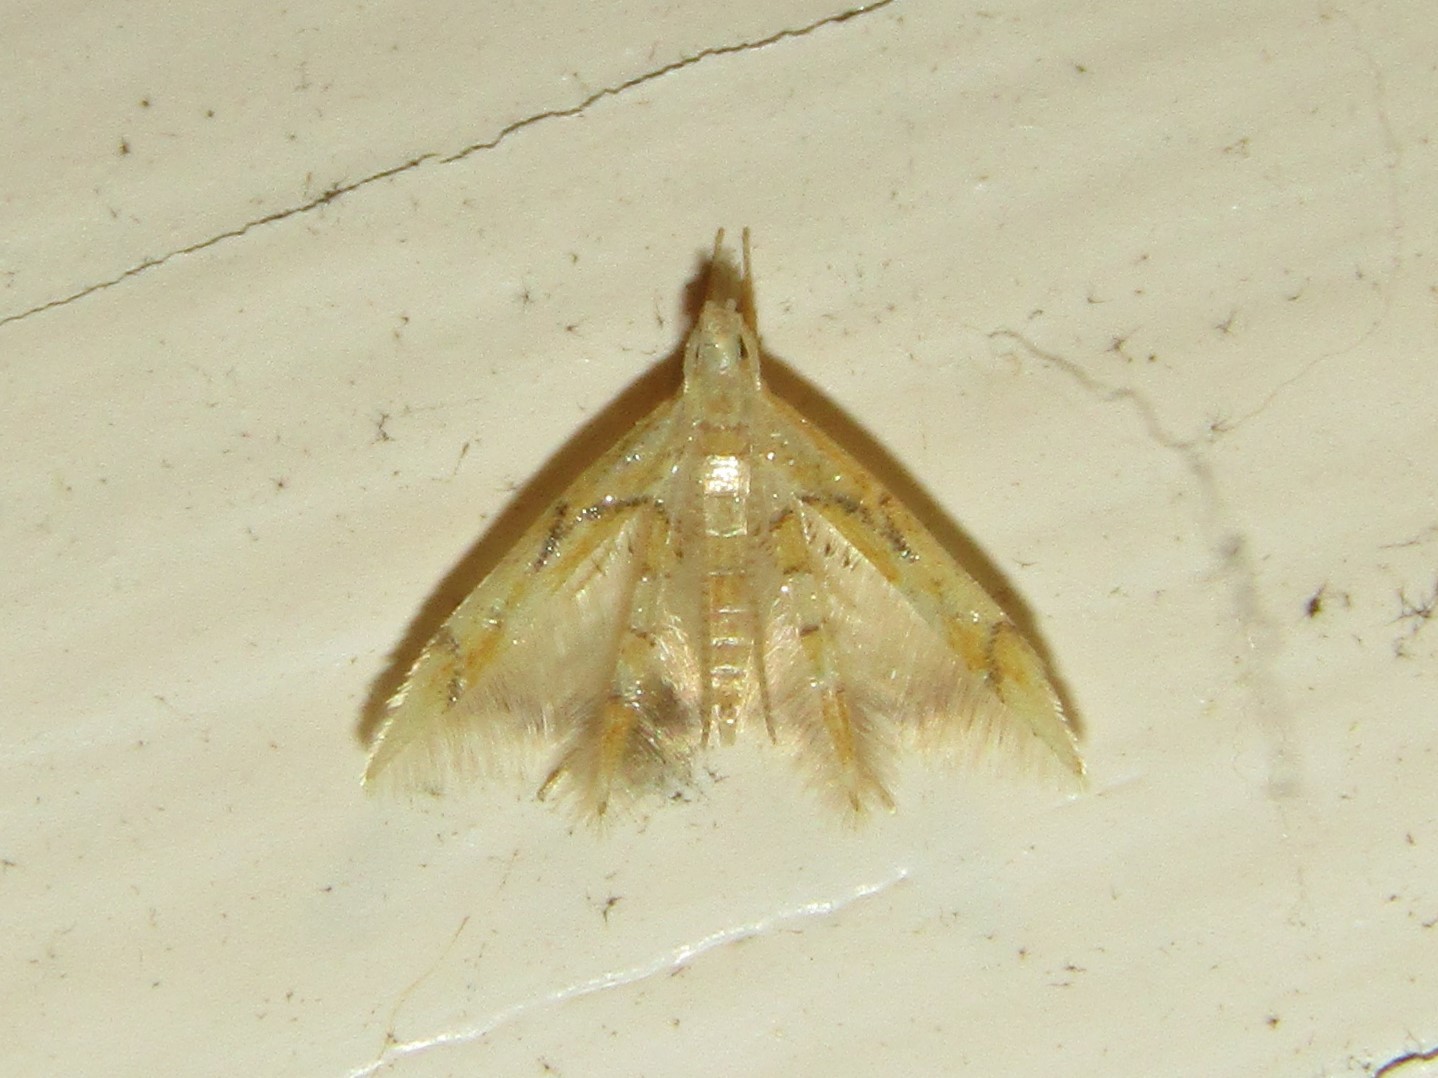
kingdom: Animalia
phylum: Arthropoda
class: Insecta
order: Lepidoptera
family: Epimarptidae
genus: Idioglossa
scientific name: Idioglossa miraculosa
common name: Miraculous idiogloss moth
